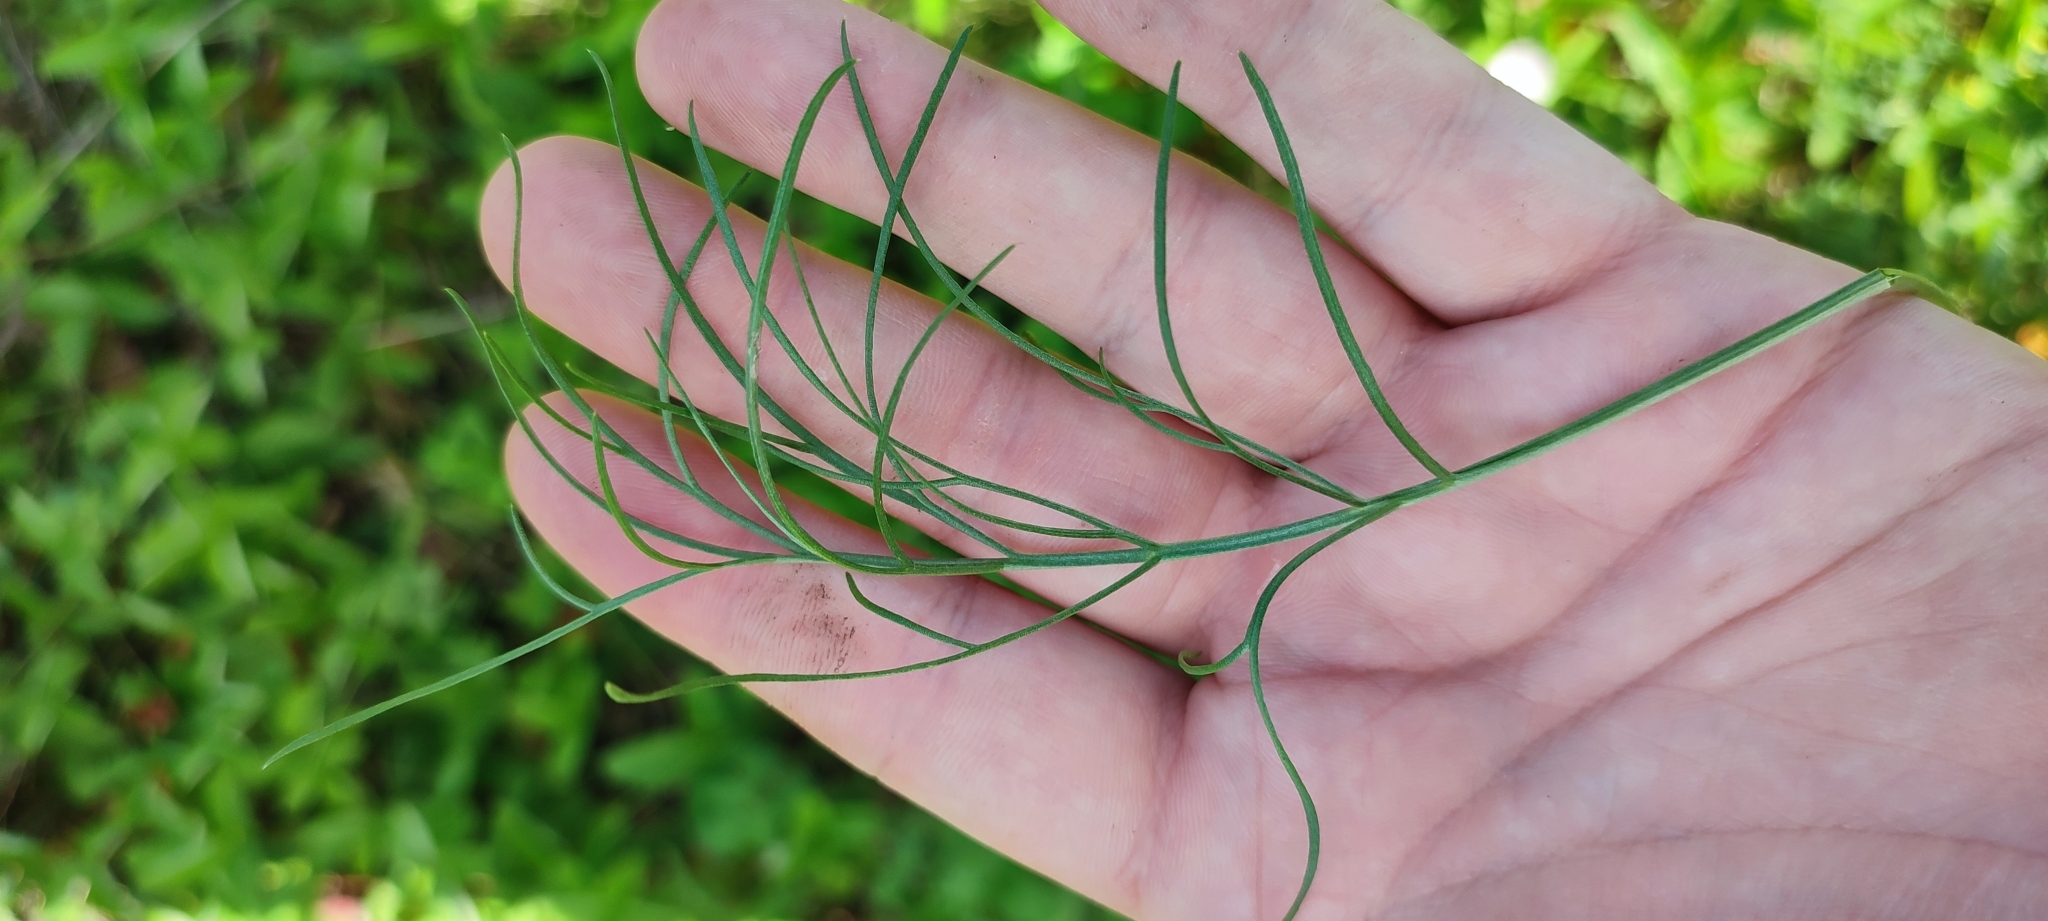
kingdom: Plantae
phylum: Tracheophyta
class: Magnoliopsida
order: Asterales
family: Asteraceae
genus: Artemisia
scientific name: Artemisia campestris
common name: Field wormwood
